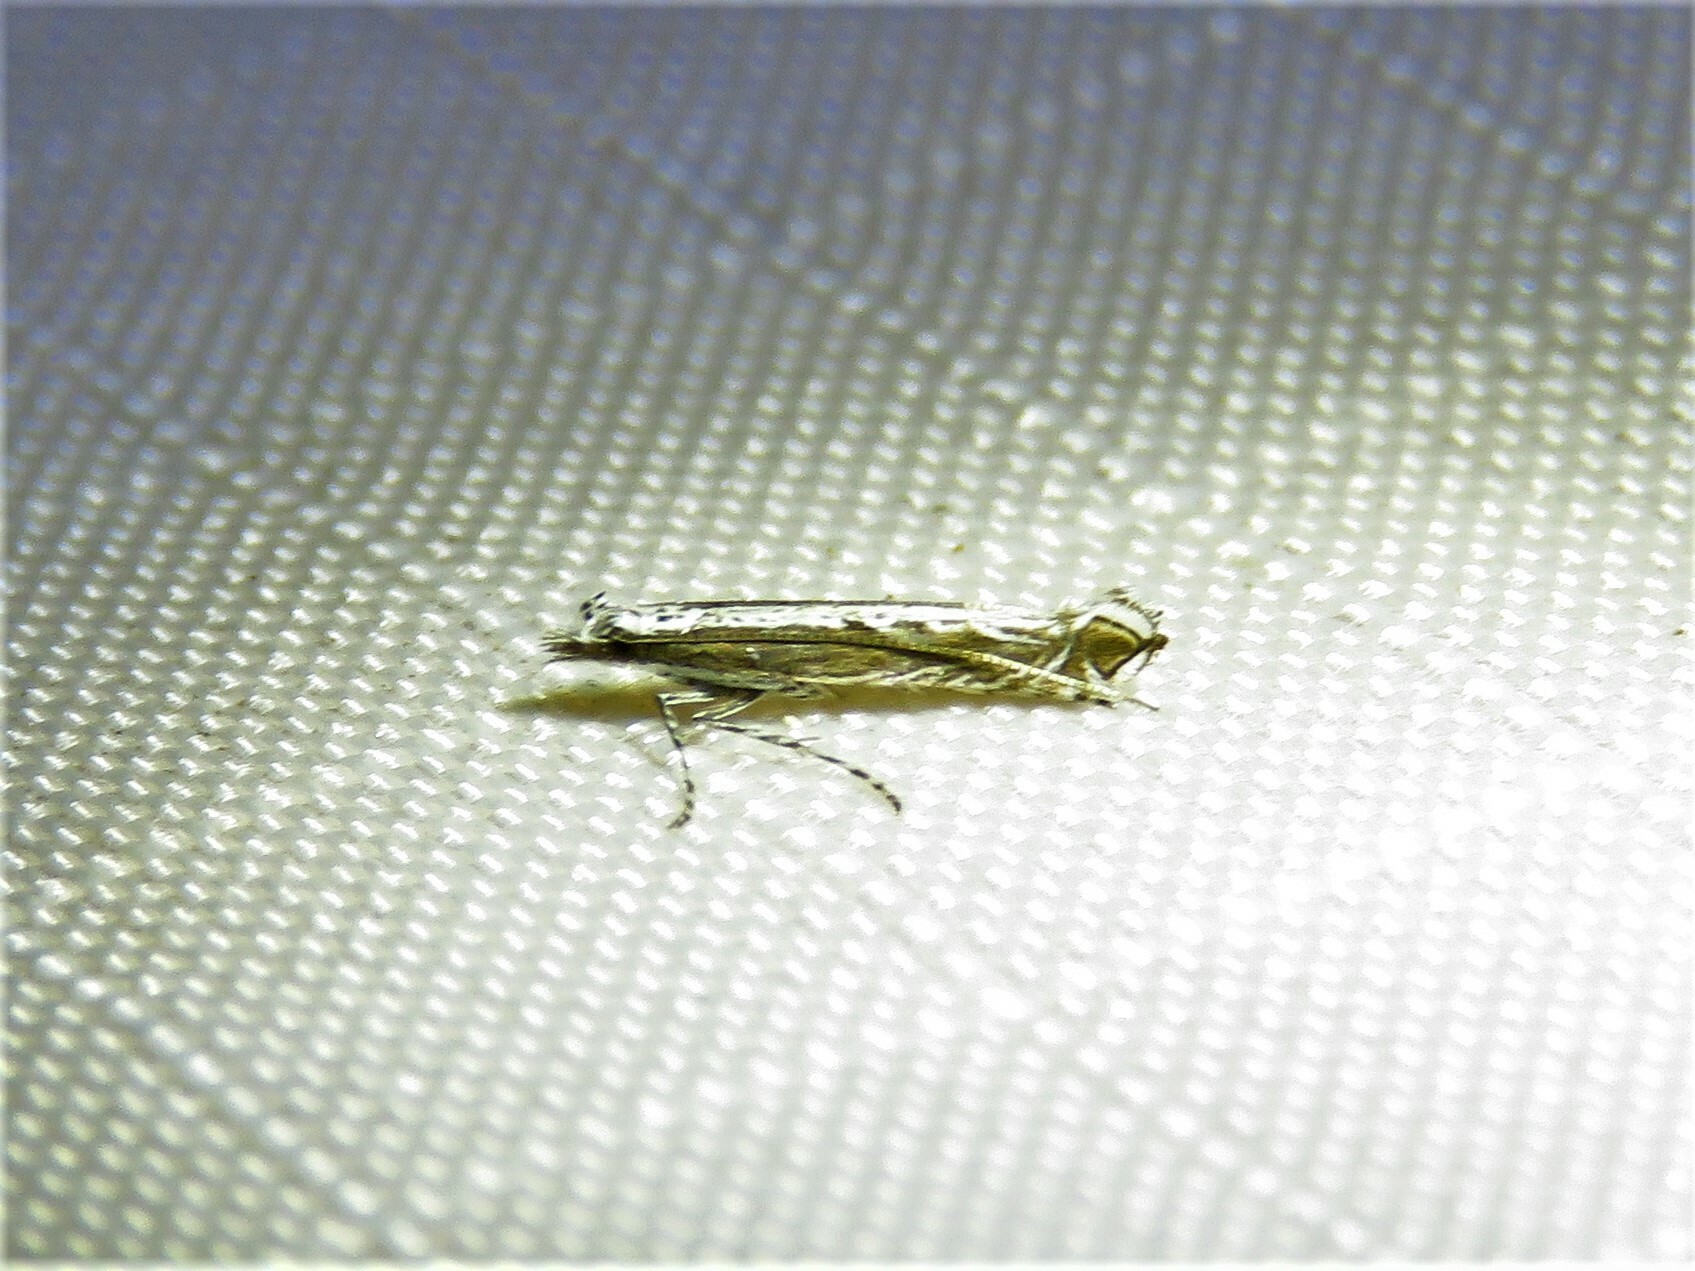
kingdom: Plantae
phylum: Rhodophyta
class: Florideophyceae
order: Gracilariales
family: Gracilariaceae
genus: Gracilaria
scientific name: Gracilaria
